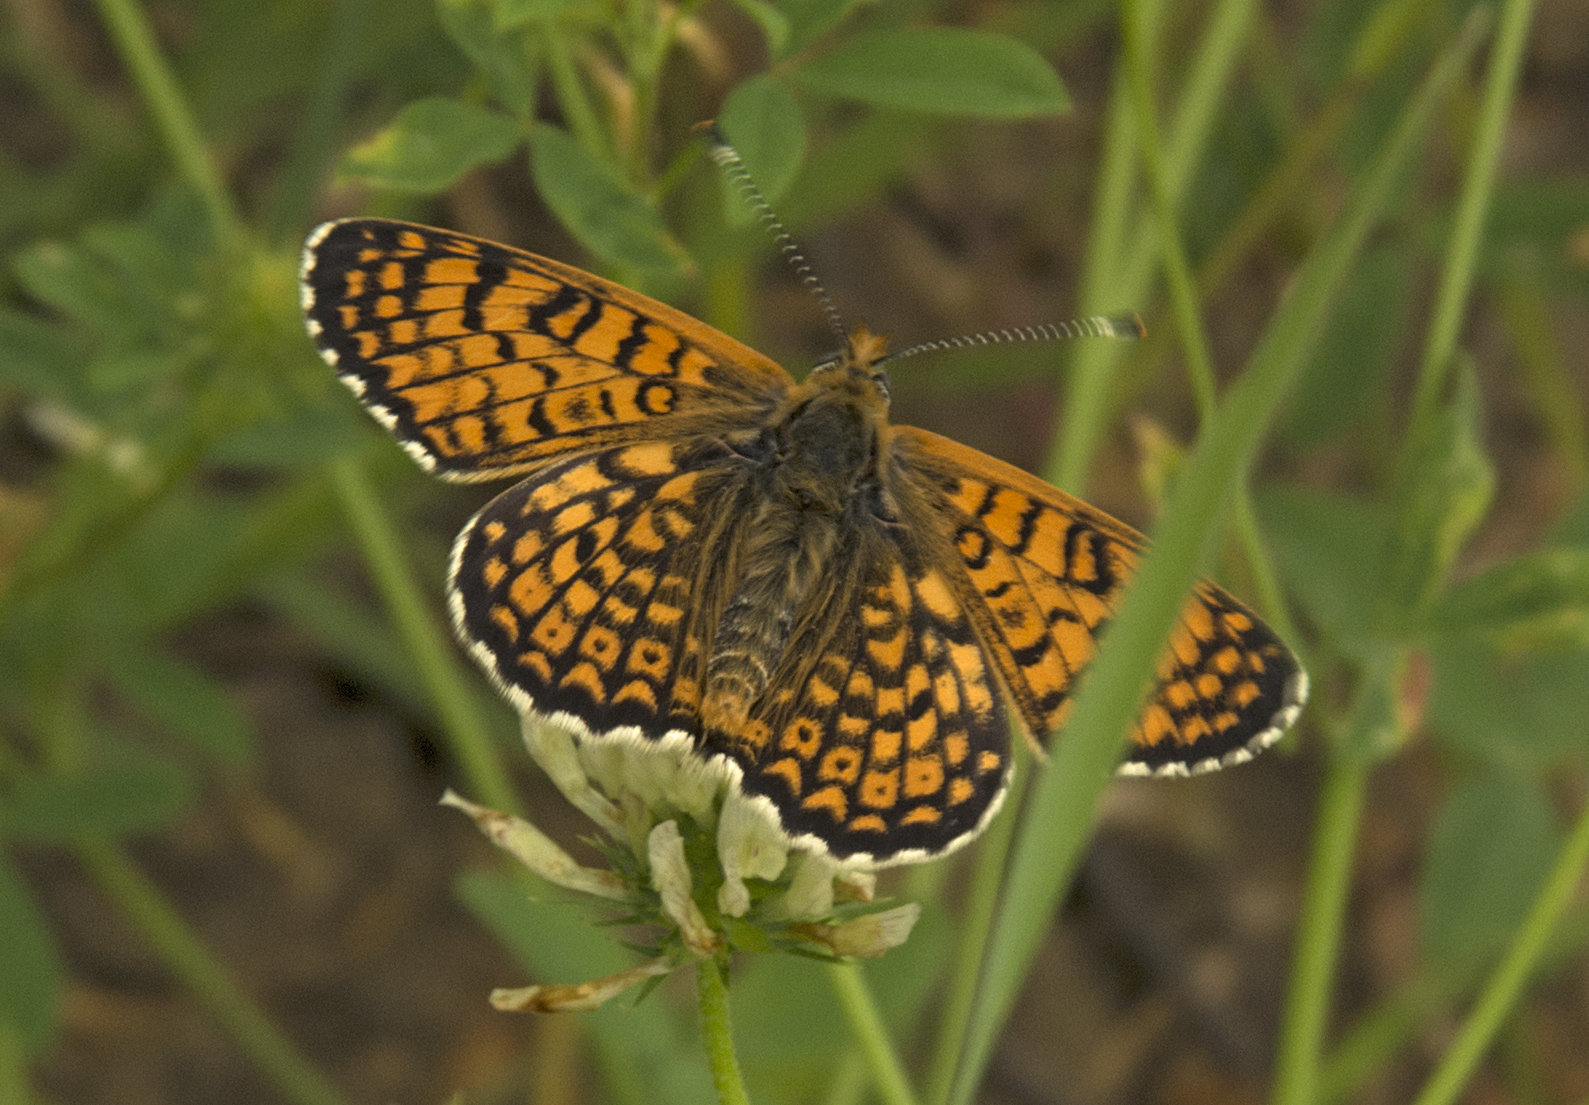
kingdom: Animalia
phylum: Arthropoda
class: Insecta
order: Lepidoptera
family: Nymphalidae
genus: Melitaea
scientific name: Melitaea cinxia
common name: Glanville fritillary
